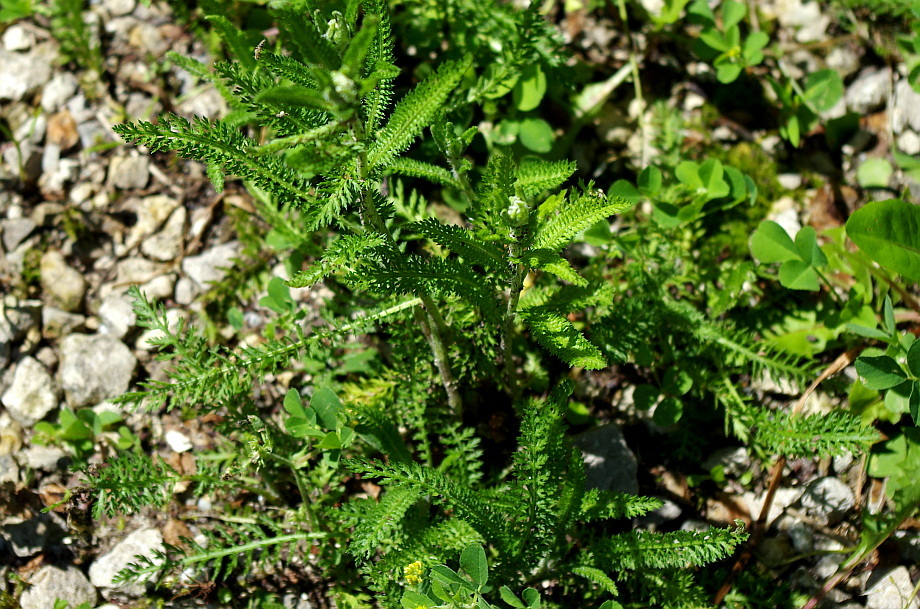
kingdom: Plantae
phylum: Tracheophyta
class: Magnoliopsida
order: Asterales
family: Asteraceae
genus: Achillea
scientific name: Achillea millefolium
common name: Yarrow
